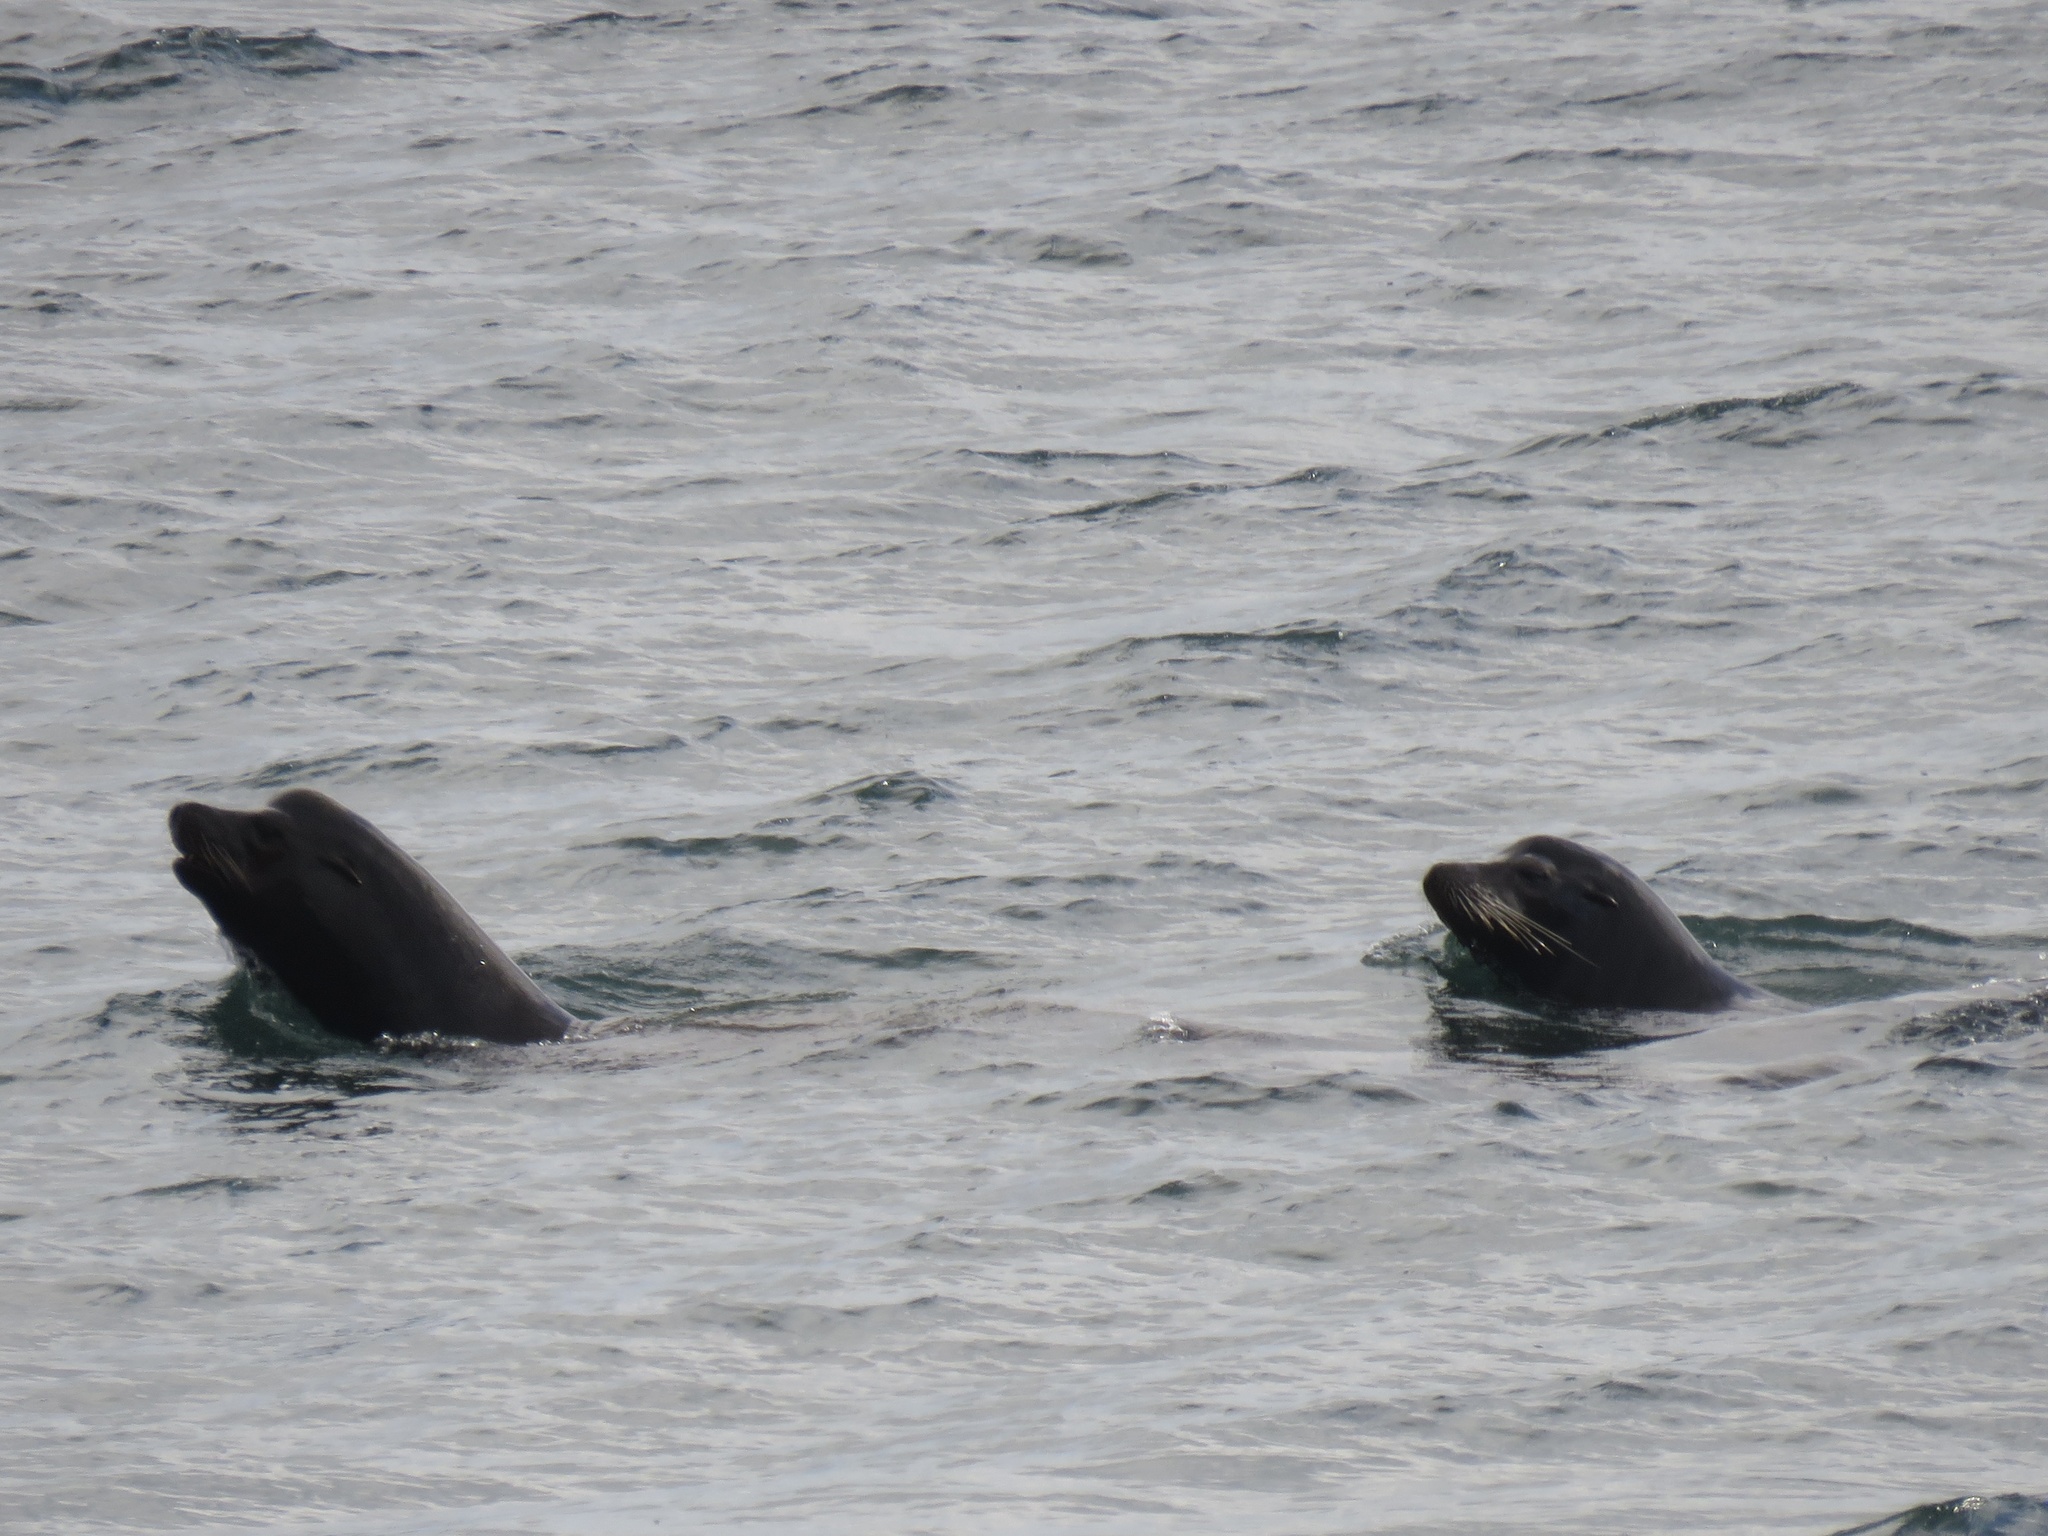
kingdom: Animalia
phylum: Chordata
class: Mammalia
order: Carnivora
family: Otariidae
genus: Zalophus
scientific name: Zalophus californianus
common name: California sea lion
